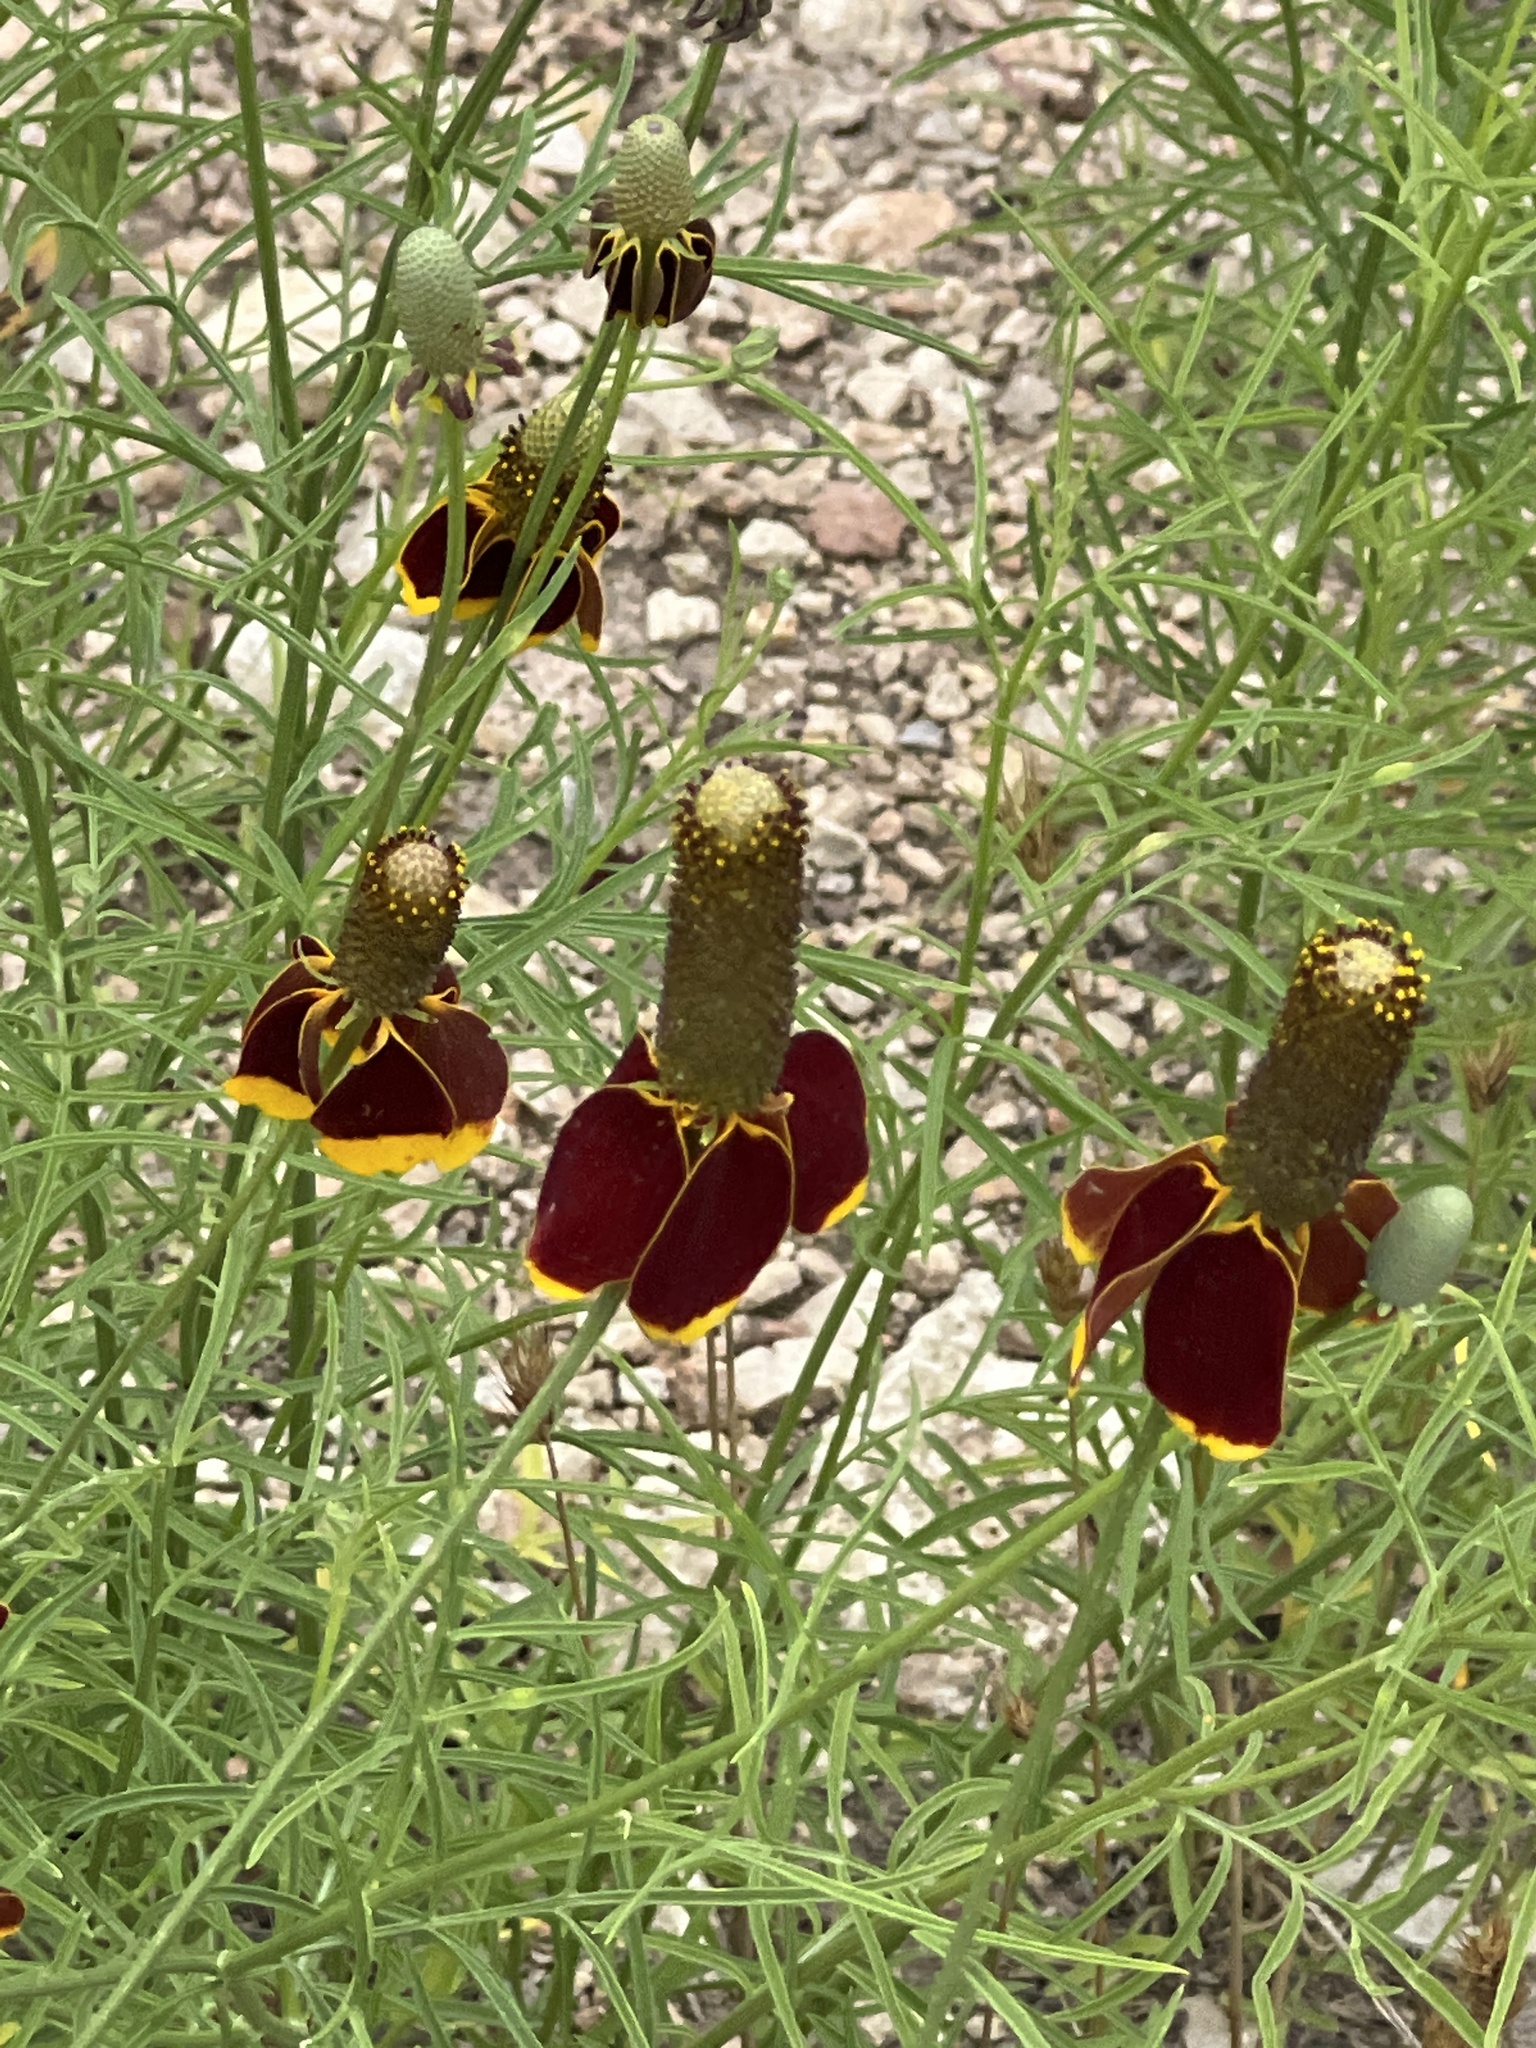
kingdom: Plantae
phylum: Tracheophyta
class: Magnoliopsida
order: Asterales
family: Asteraceae
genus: Ratibida
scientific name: Ratibida columnifera
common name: Prairie coneflower
